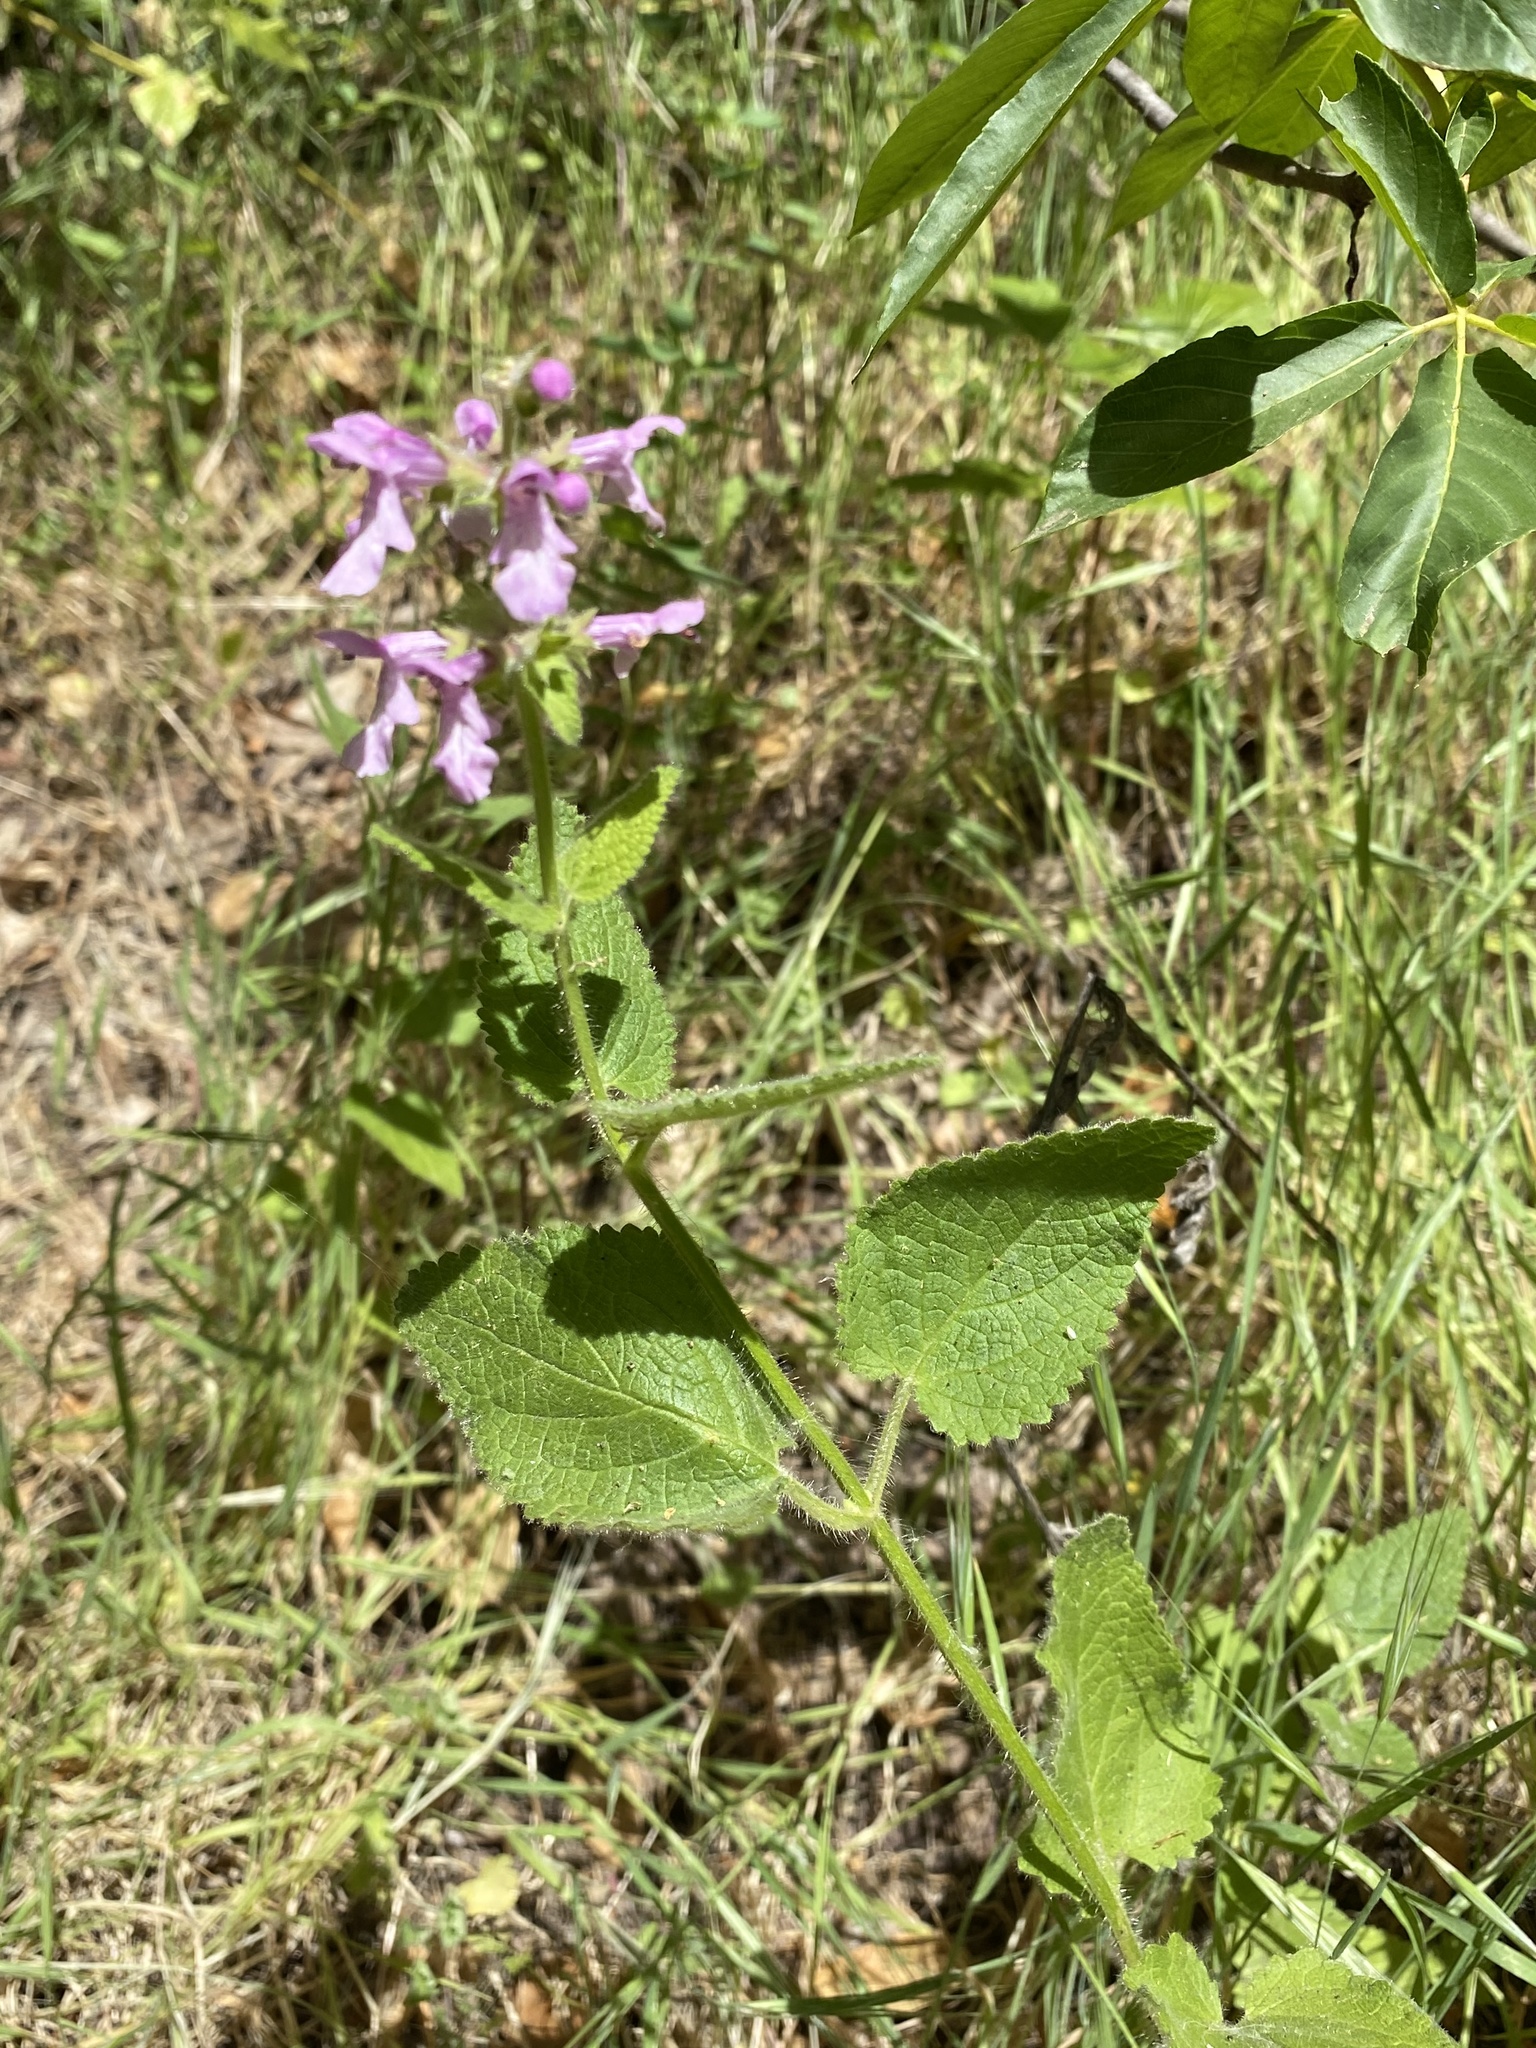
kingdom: Plantae
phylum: Tracheophyta
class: Magnoliopsida
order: Lamiales
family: Lamiaceae
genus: Stachys
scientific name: Stachys bullata
